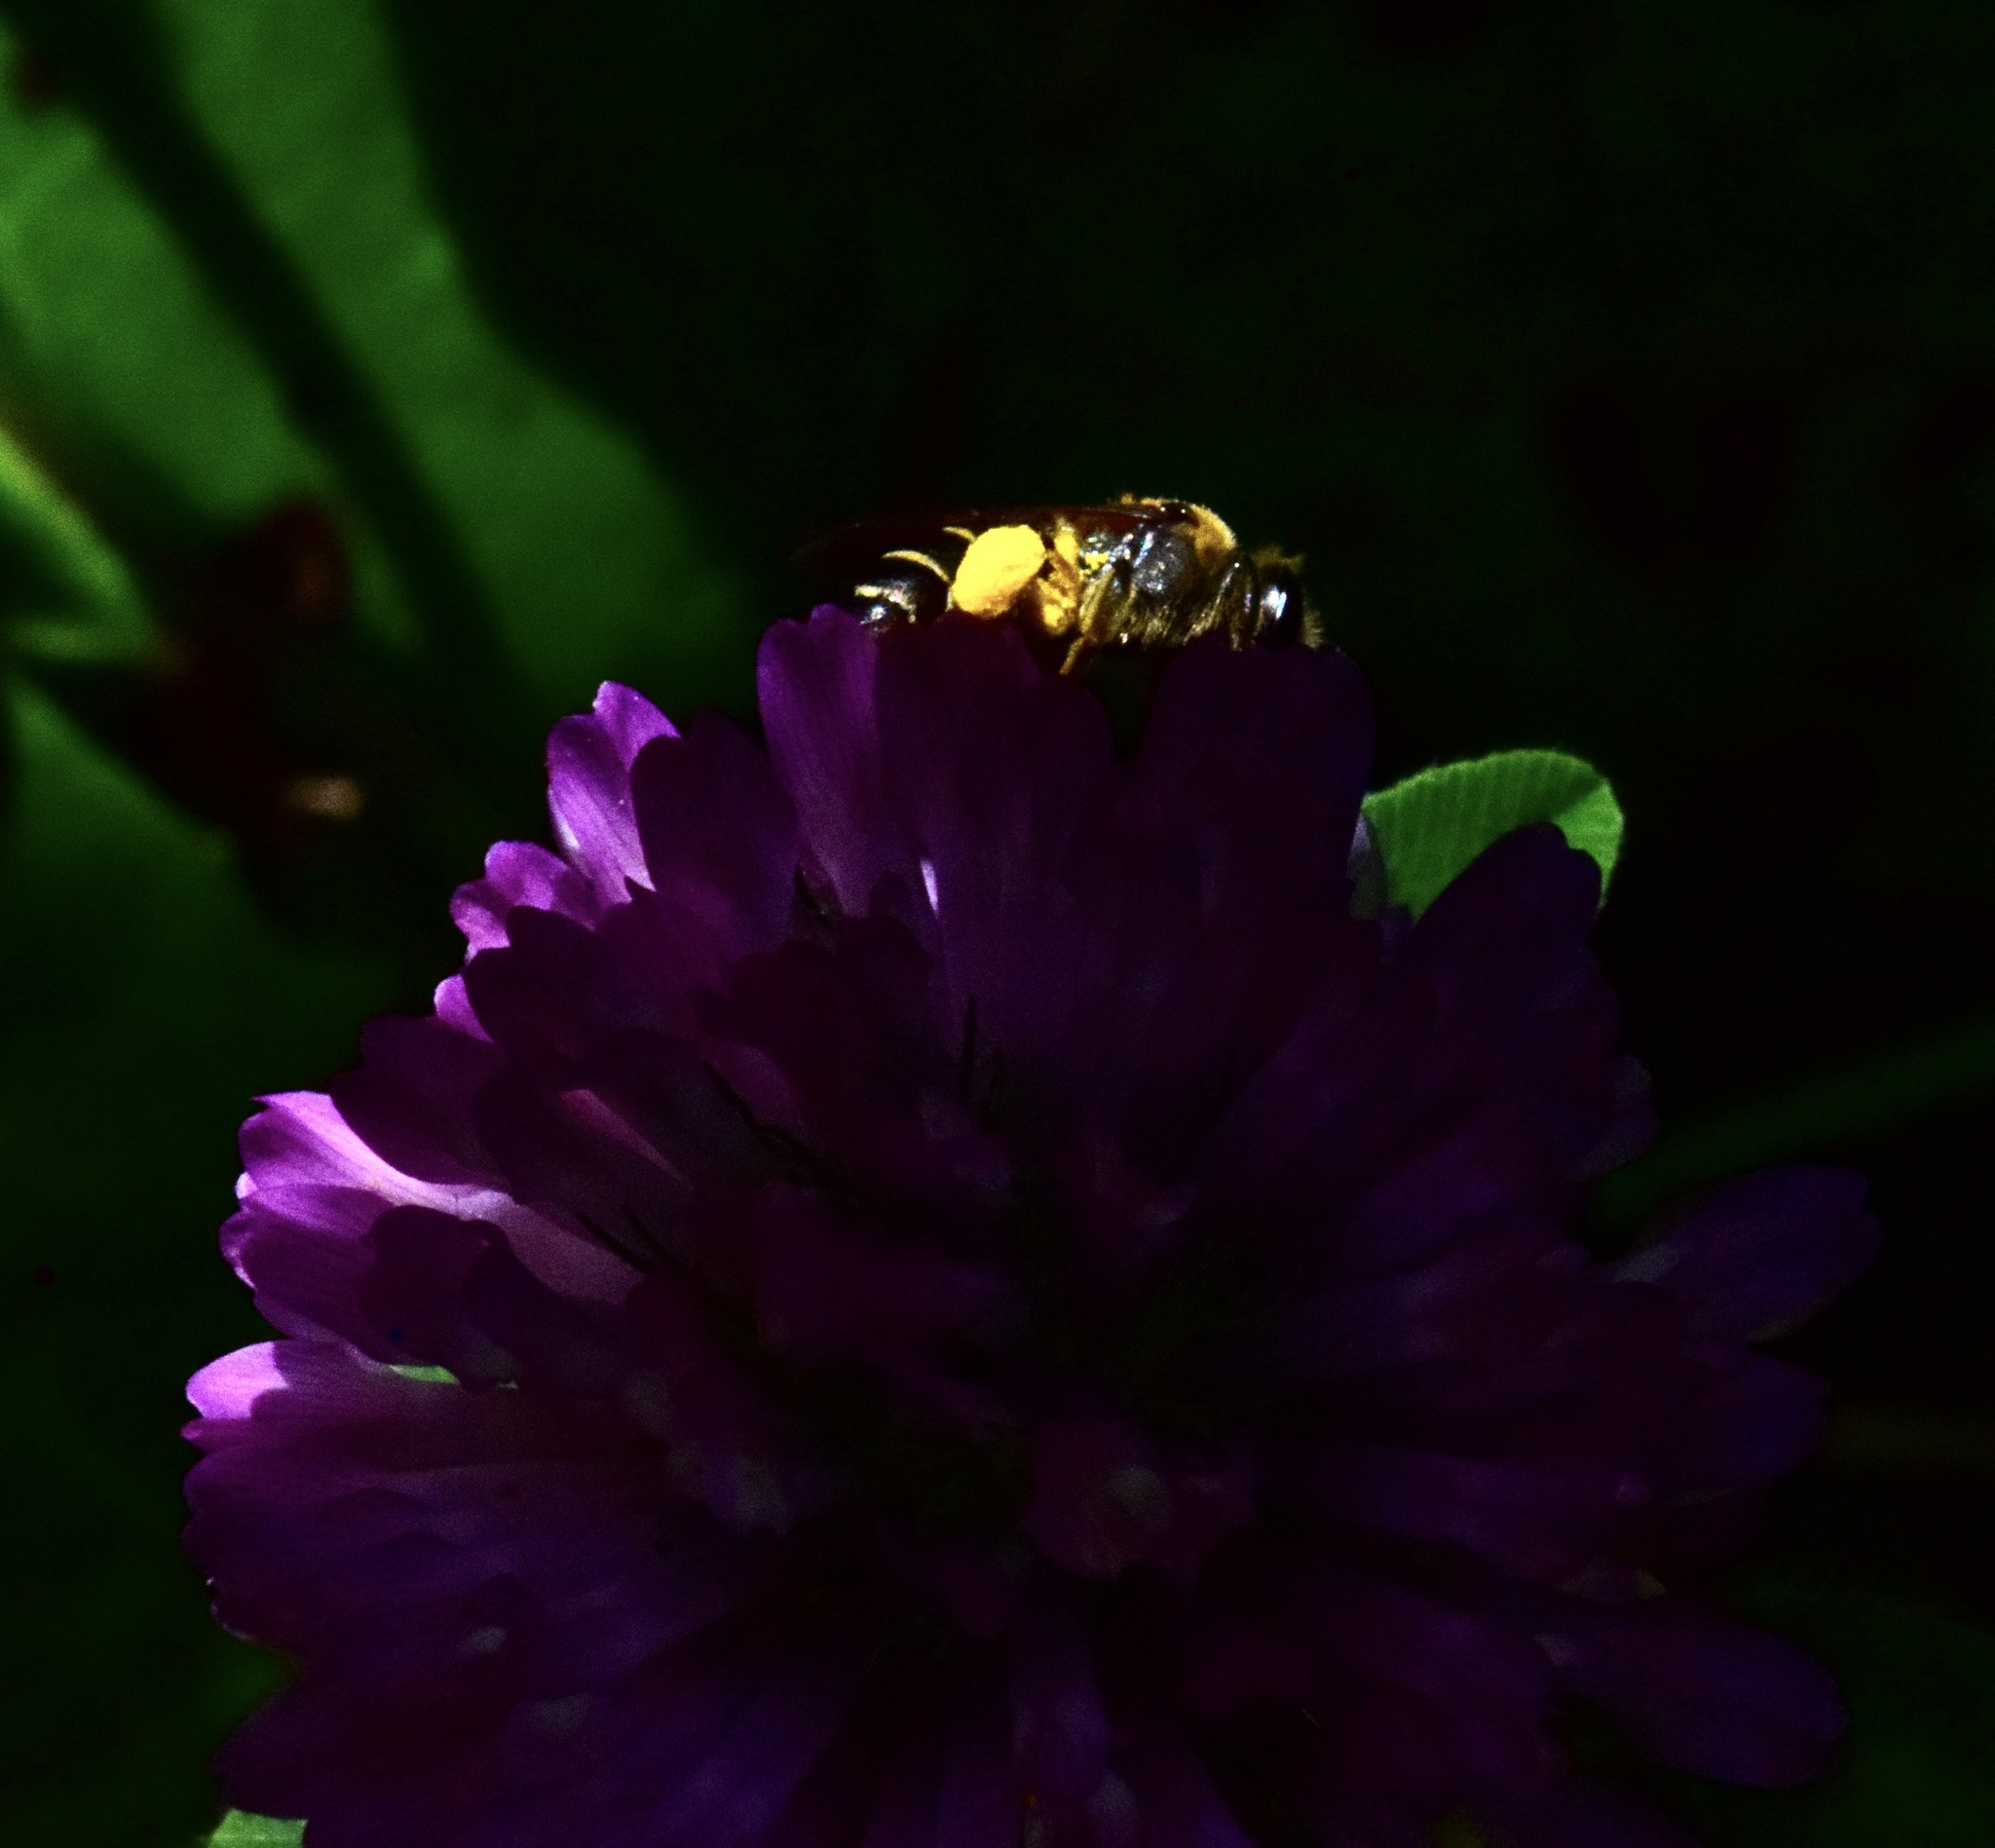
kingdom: Animalia
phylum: Arthropoda
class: Insecta
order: Hymenoptera
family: Andrenidae
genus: Andrena
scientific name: Andrena wilkella
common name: Wilke's mining bee
